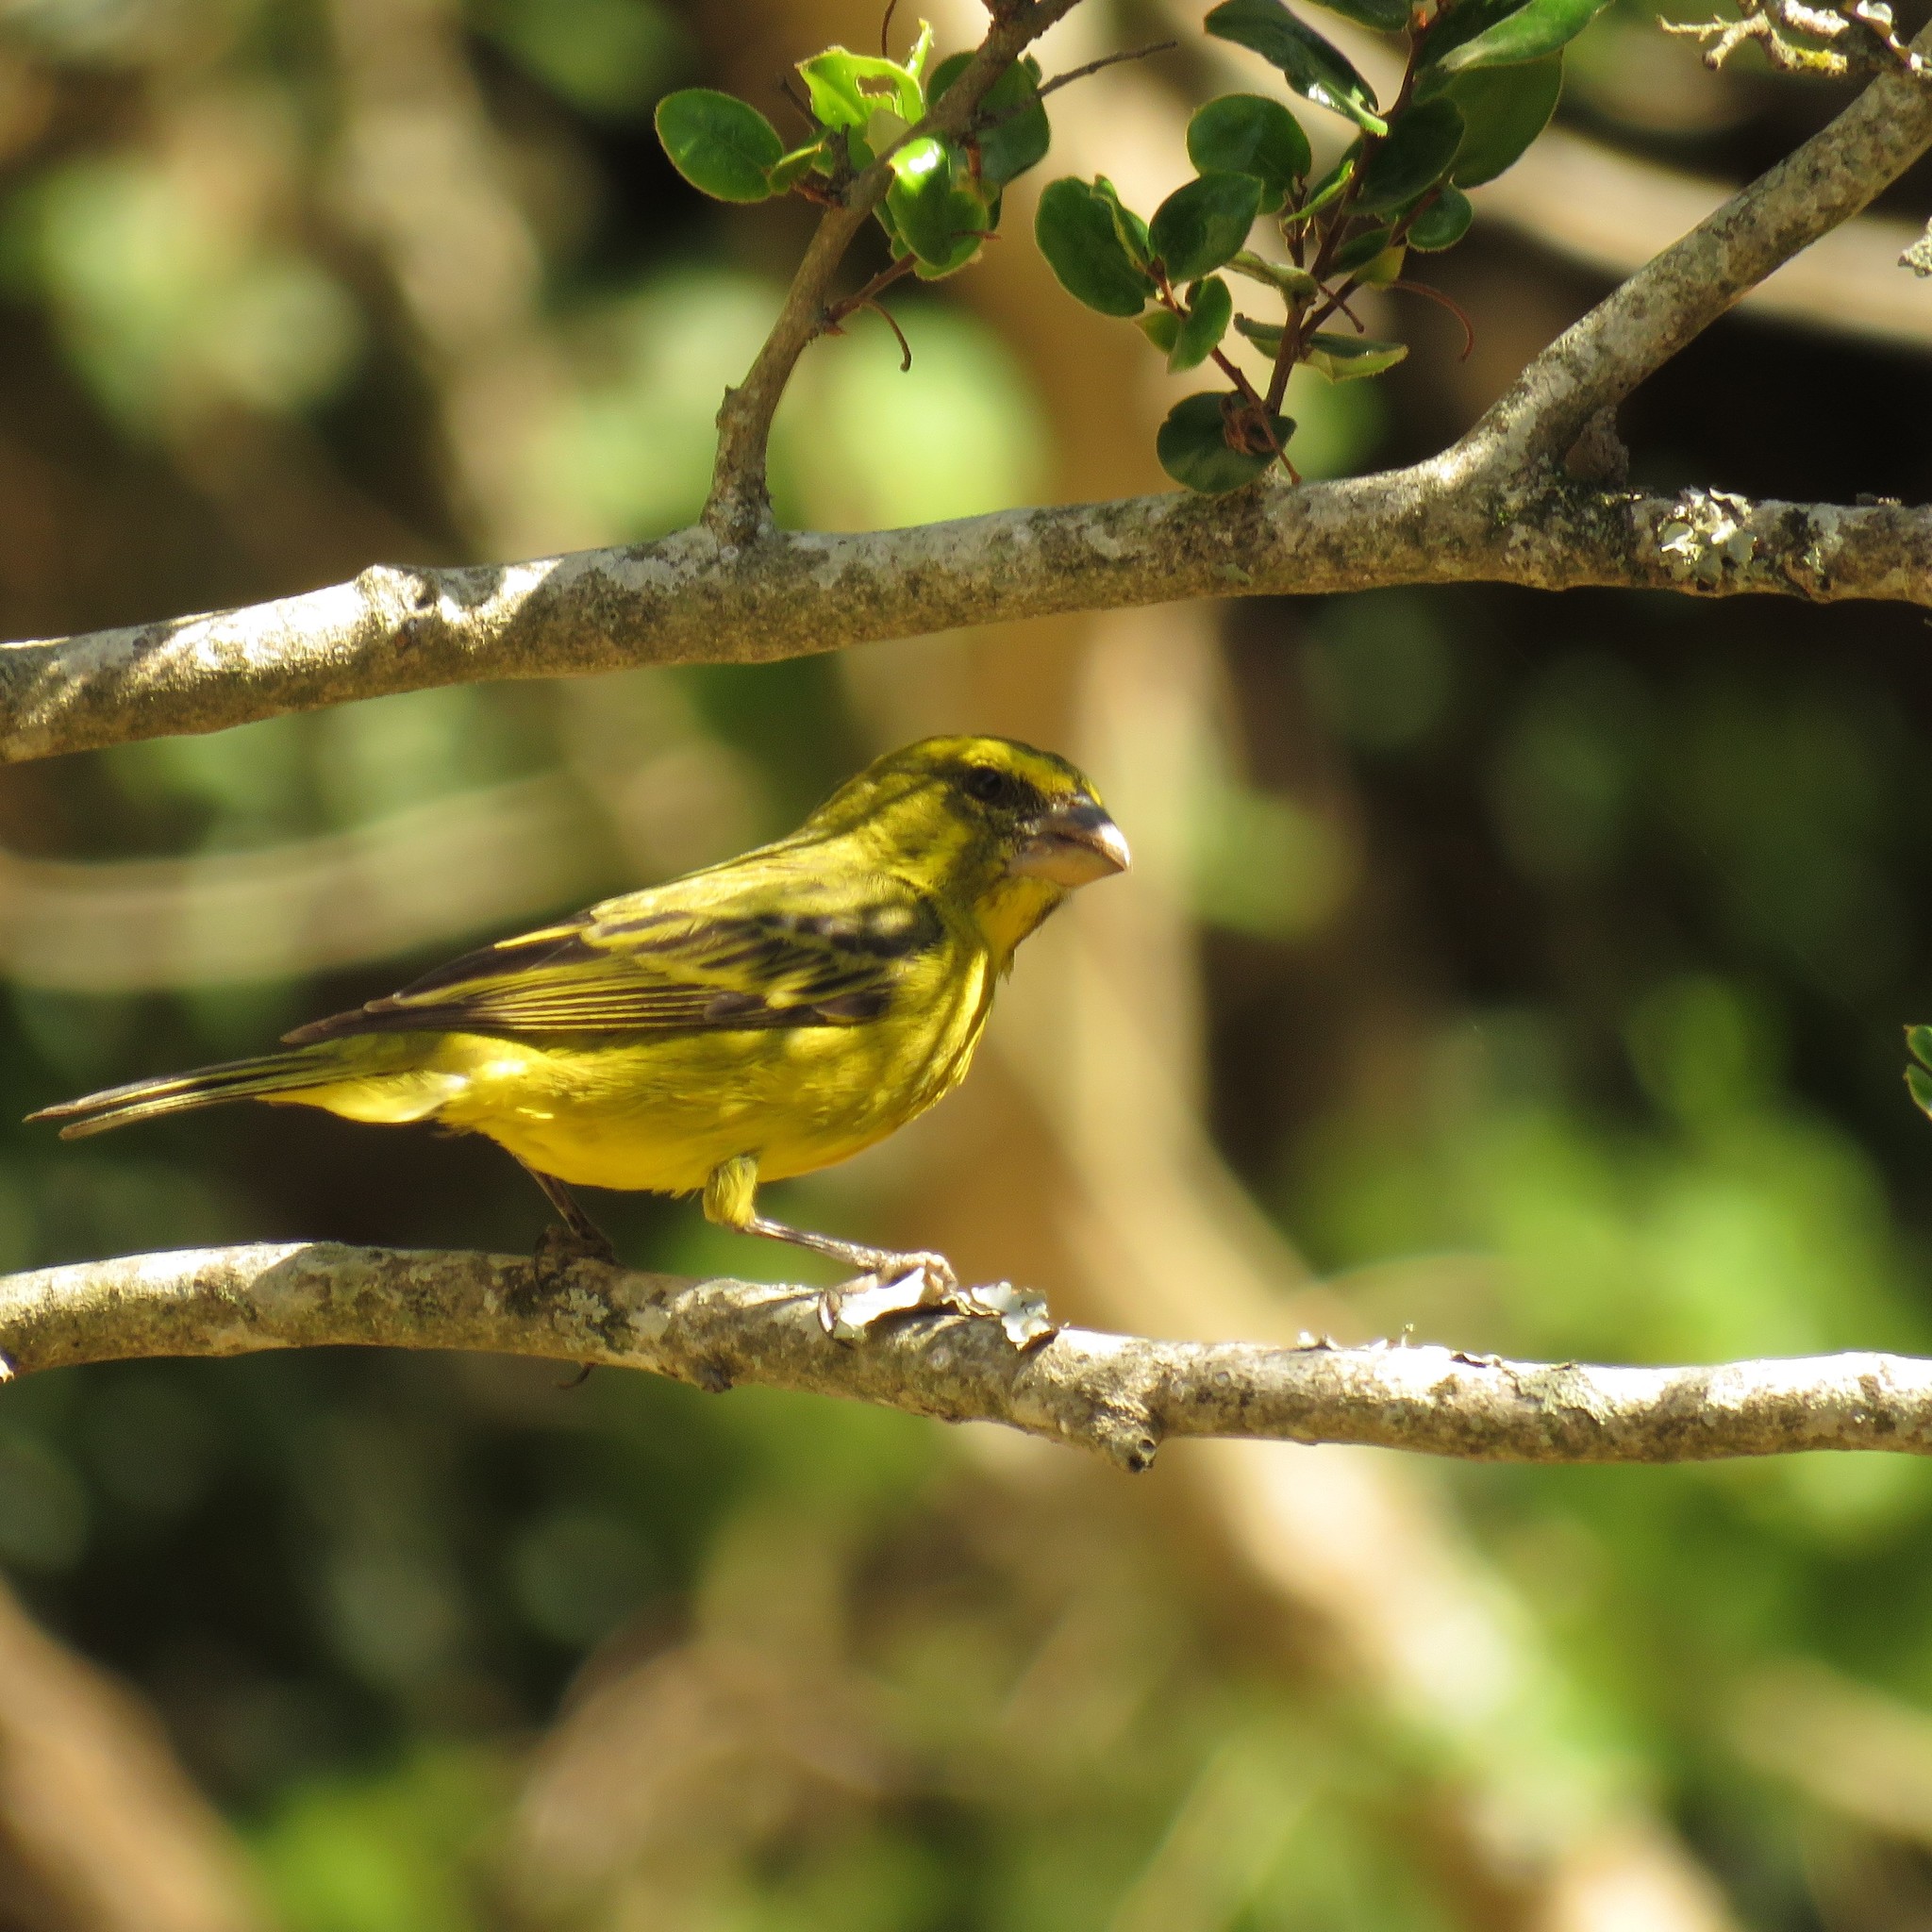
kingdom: Animalia
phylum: Chordata
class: Aves
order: Passeriformes
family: Fringillidae
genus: Crithagra
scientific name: Crithagra sulphurata
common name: Brimstone canary
